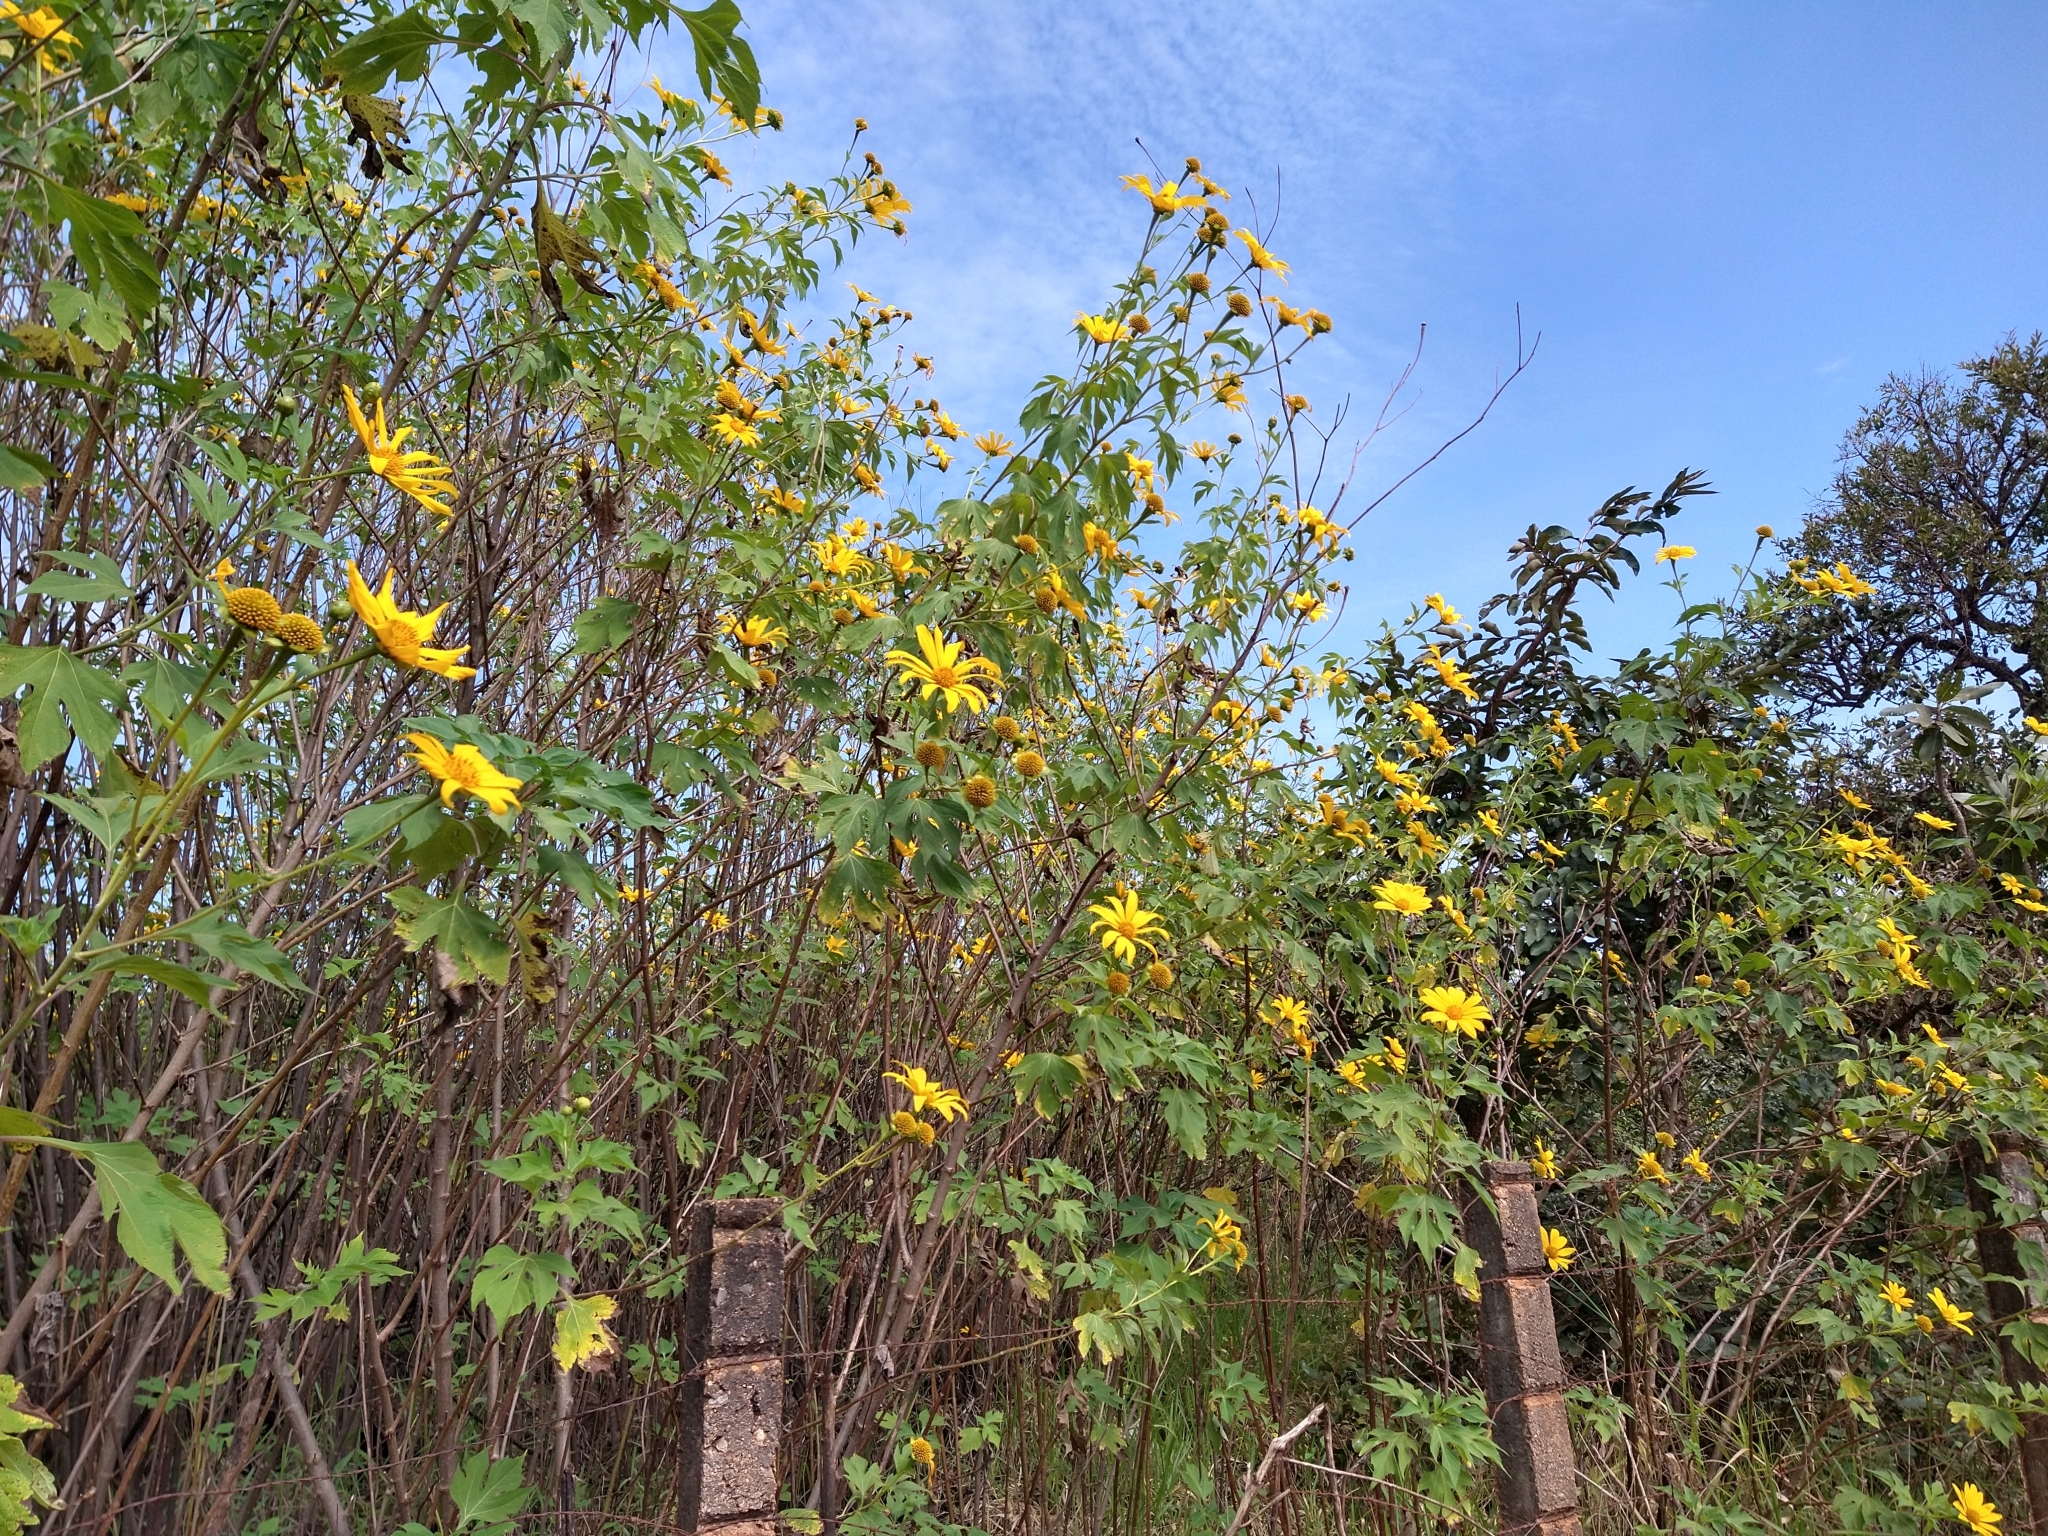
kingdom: Plantae
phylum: Tracheophyta
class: Magnoliopsida
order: Asterales
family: Asteraceae
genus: Tithonia
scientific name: Tithonia diversifolia
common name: Tree marigold
